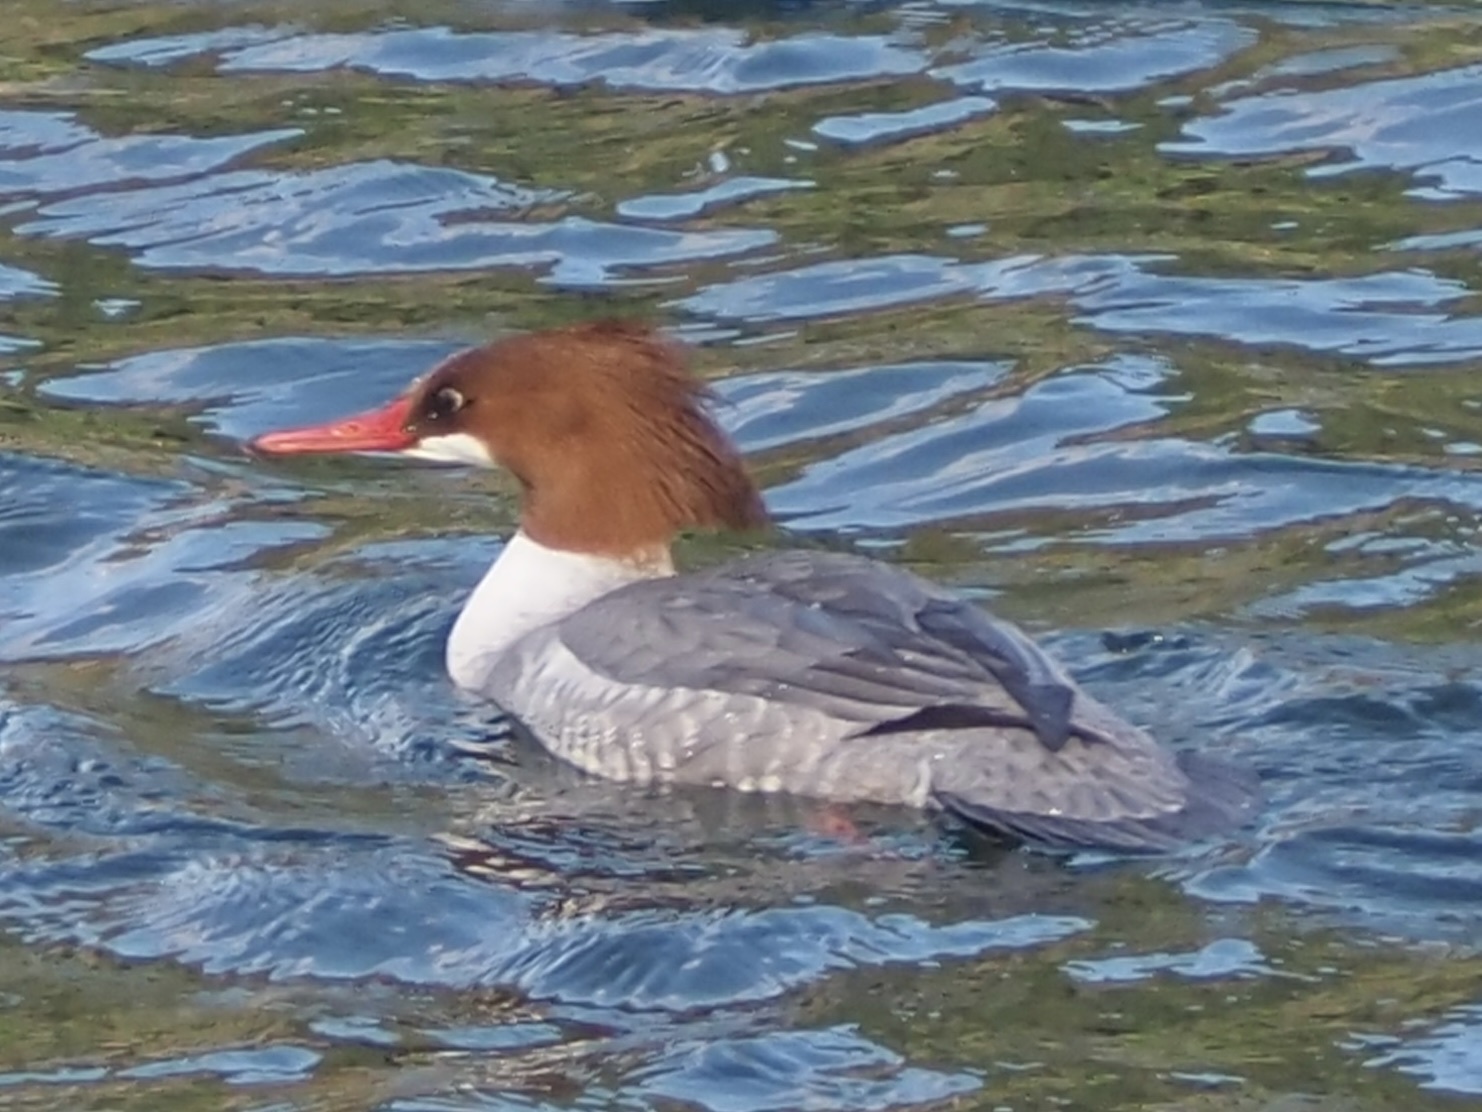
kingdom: Animalia
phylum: Chordata
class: Aves
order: Anseriformes
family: Anatidae
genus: Mergus
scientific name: Mergus merganser
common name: Common merganser
